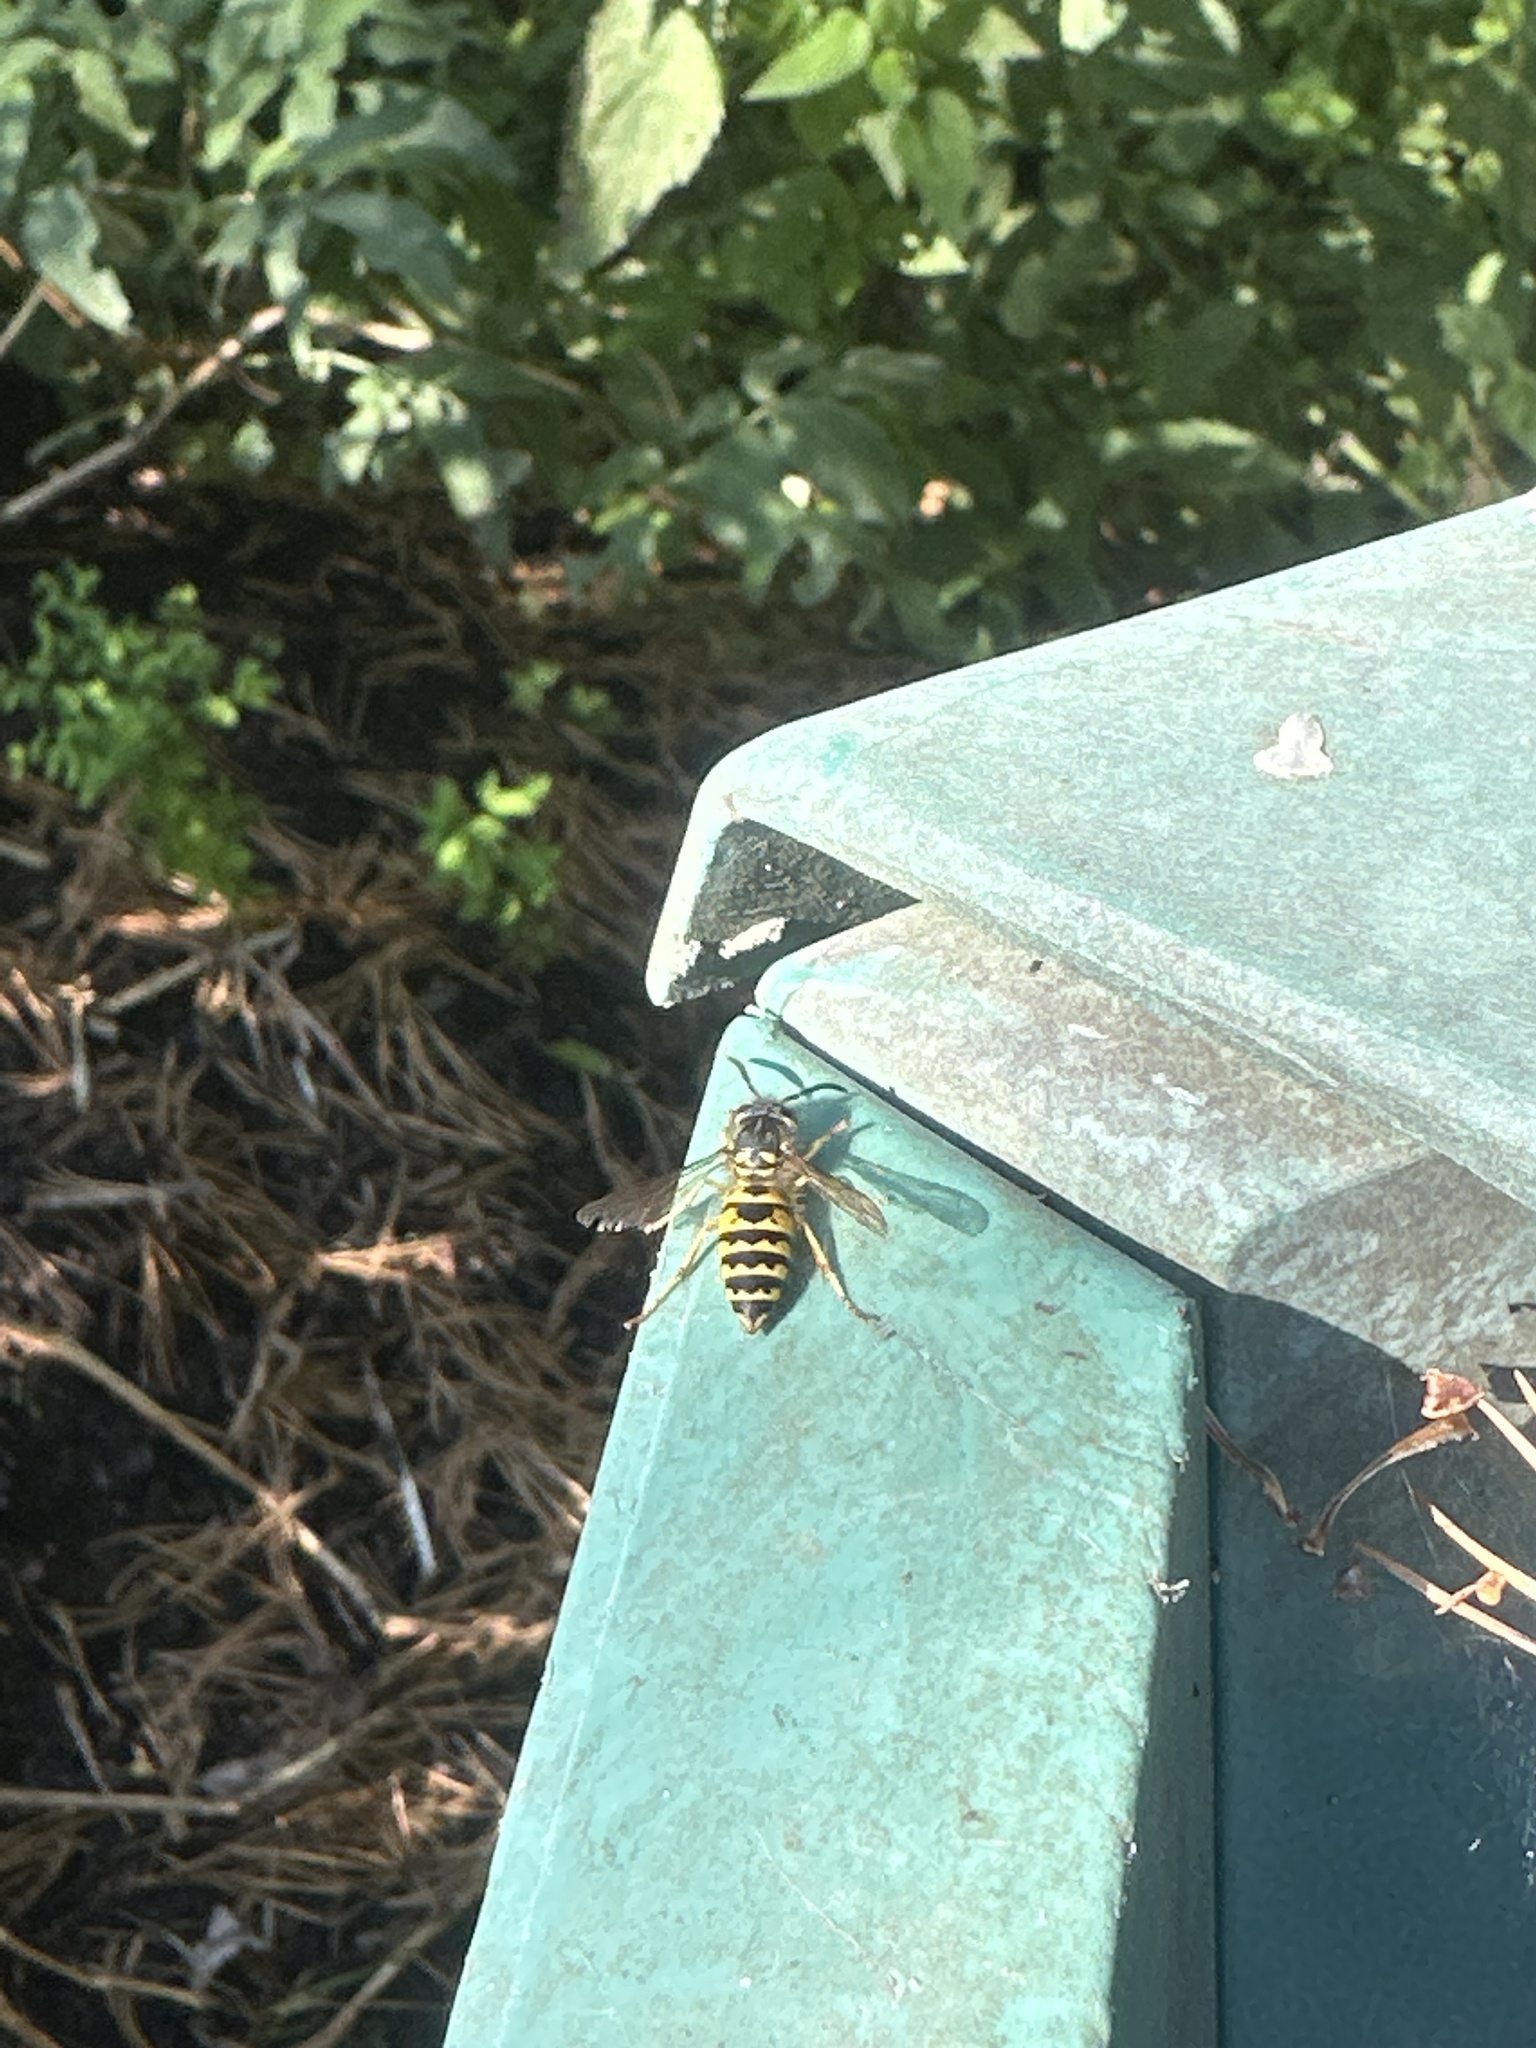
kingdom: Animalia
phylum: Arthropoda
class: Insecta
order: Hymenoptera
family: Vespidae
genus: Vespula
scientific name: Vespula vulgaris
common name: Common wasp
